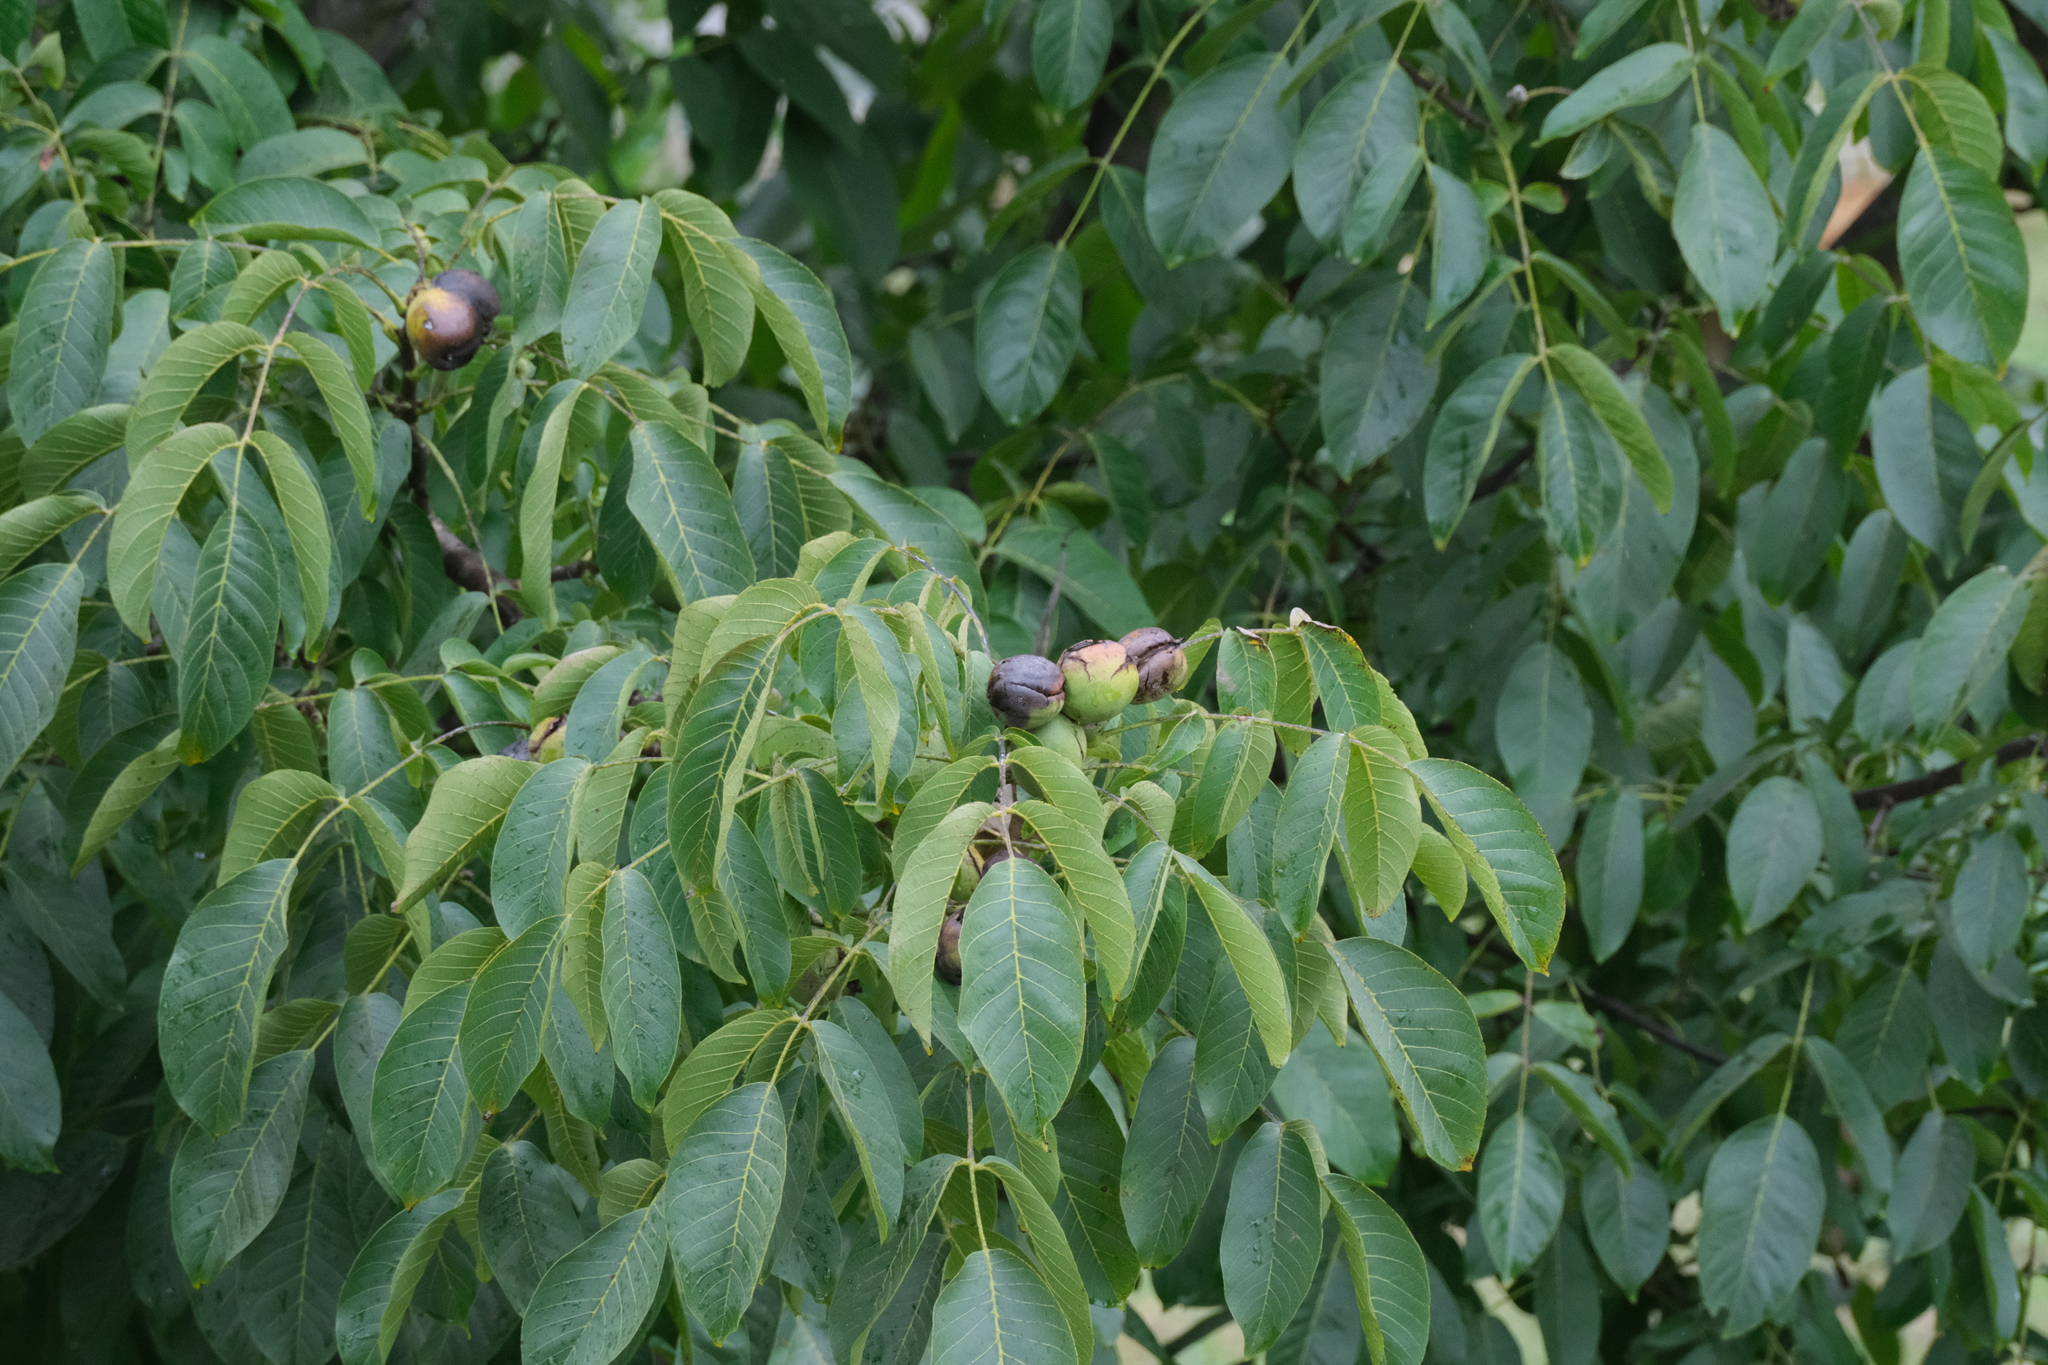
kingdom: Plantae
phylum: Tracheophyta
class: Magnoliopsida
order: Fagales
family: Juglandaceae
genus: Juglans
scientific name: Juglans regia
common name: Walnut
